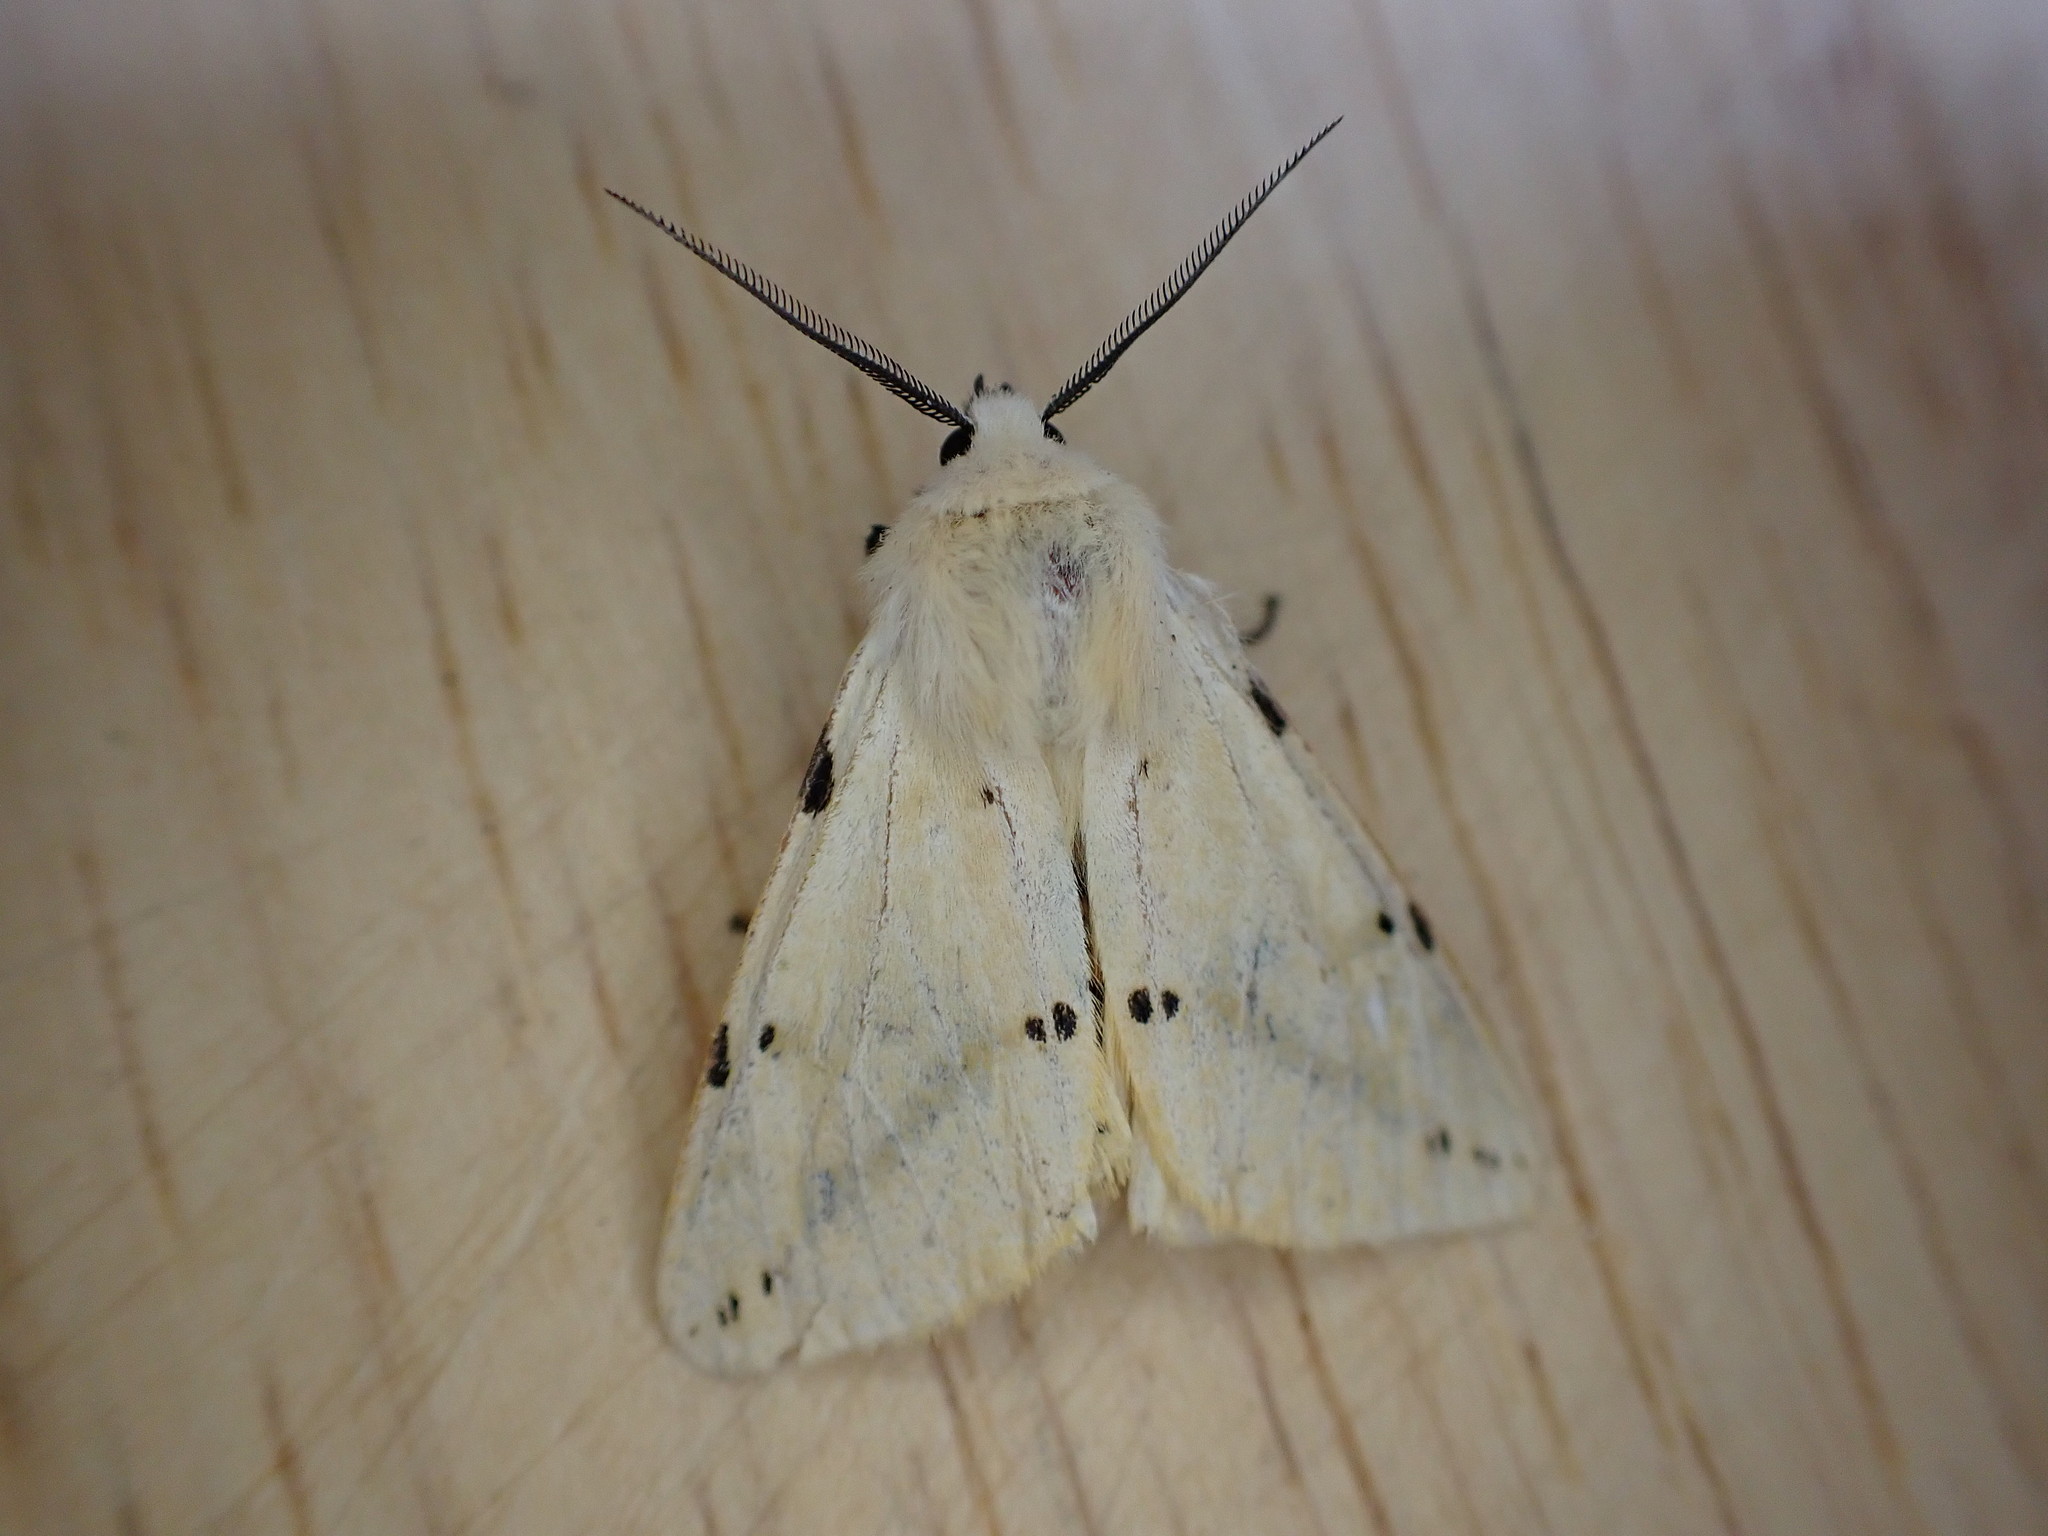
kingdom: Animalia
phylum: Arthropoda
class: Insecta
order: Lepidoptera
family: Erebidae
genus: Spilarctia
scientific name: Spilarctia lutea
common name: Buff ermine
